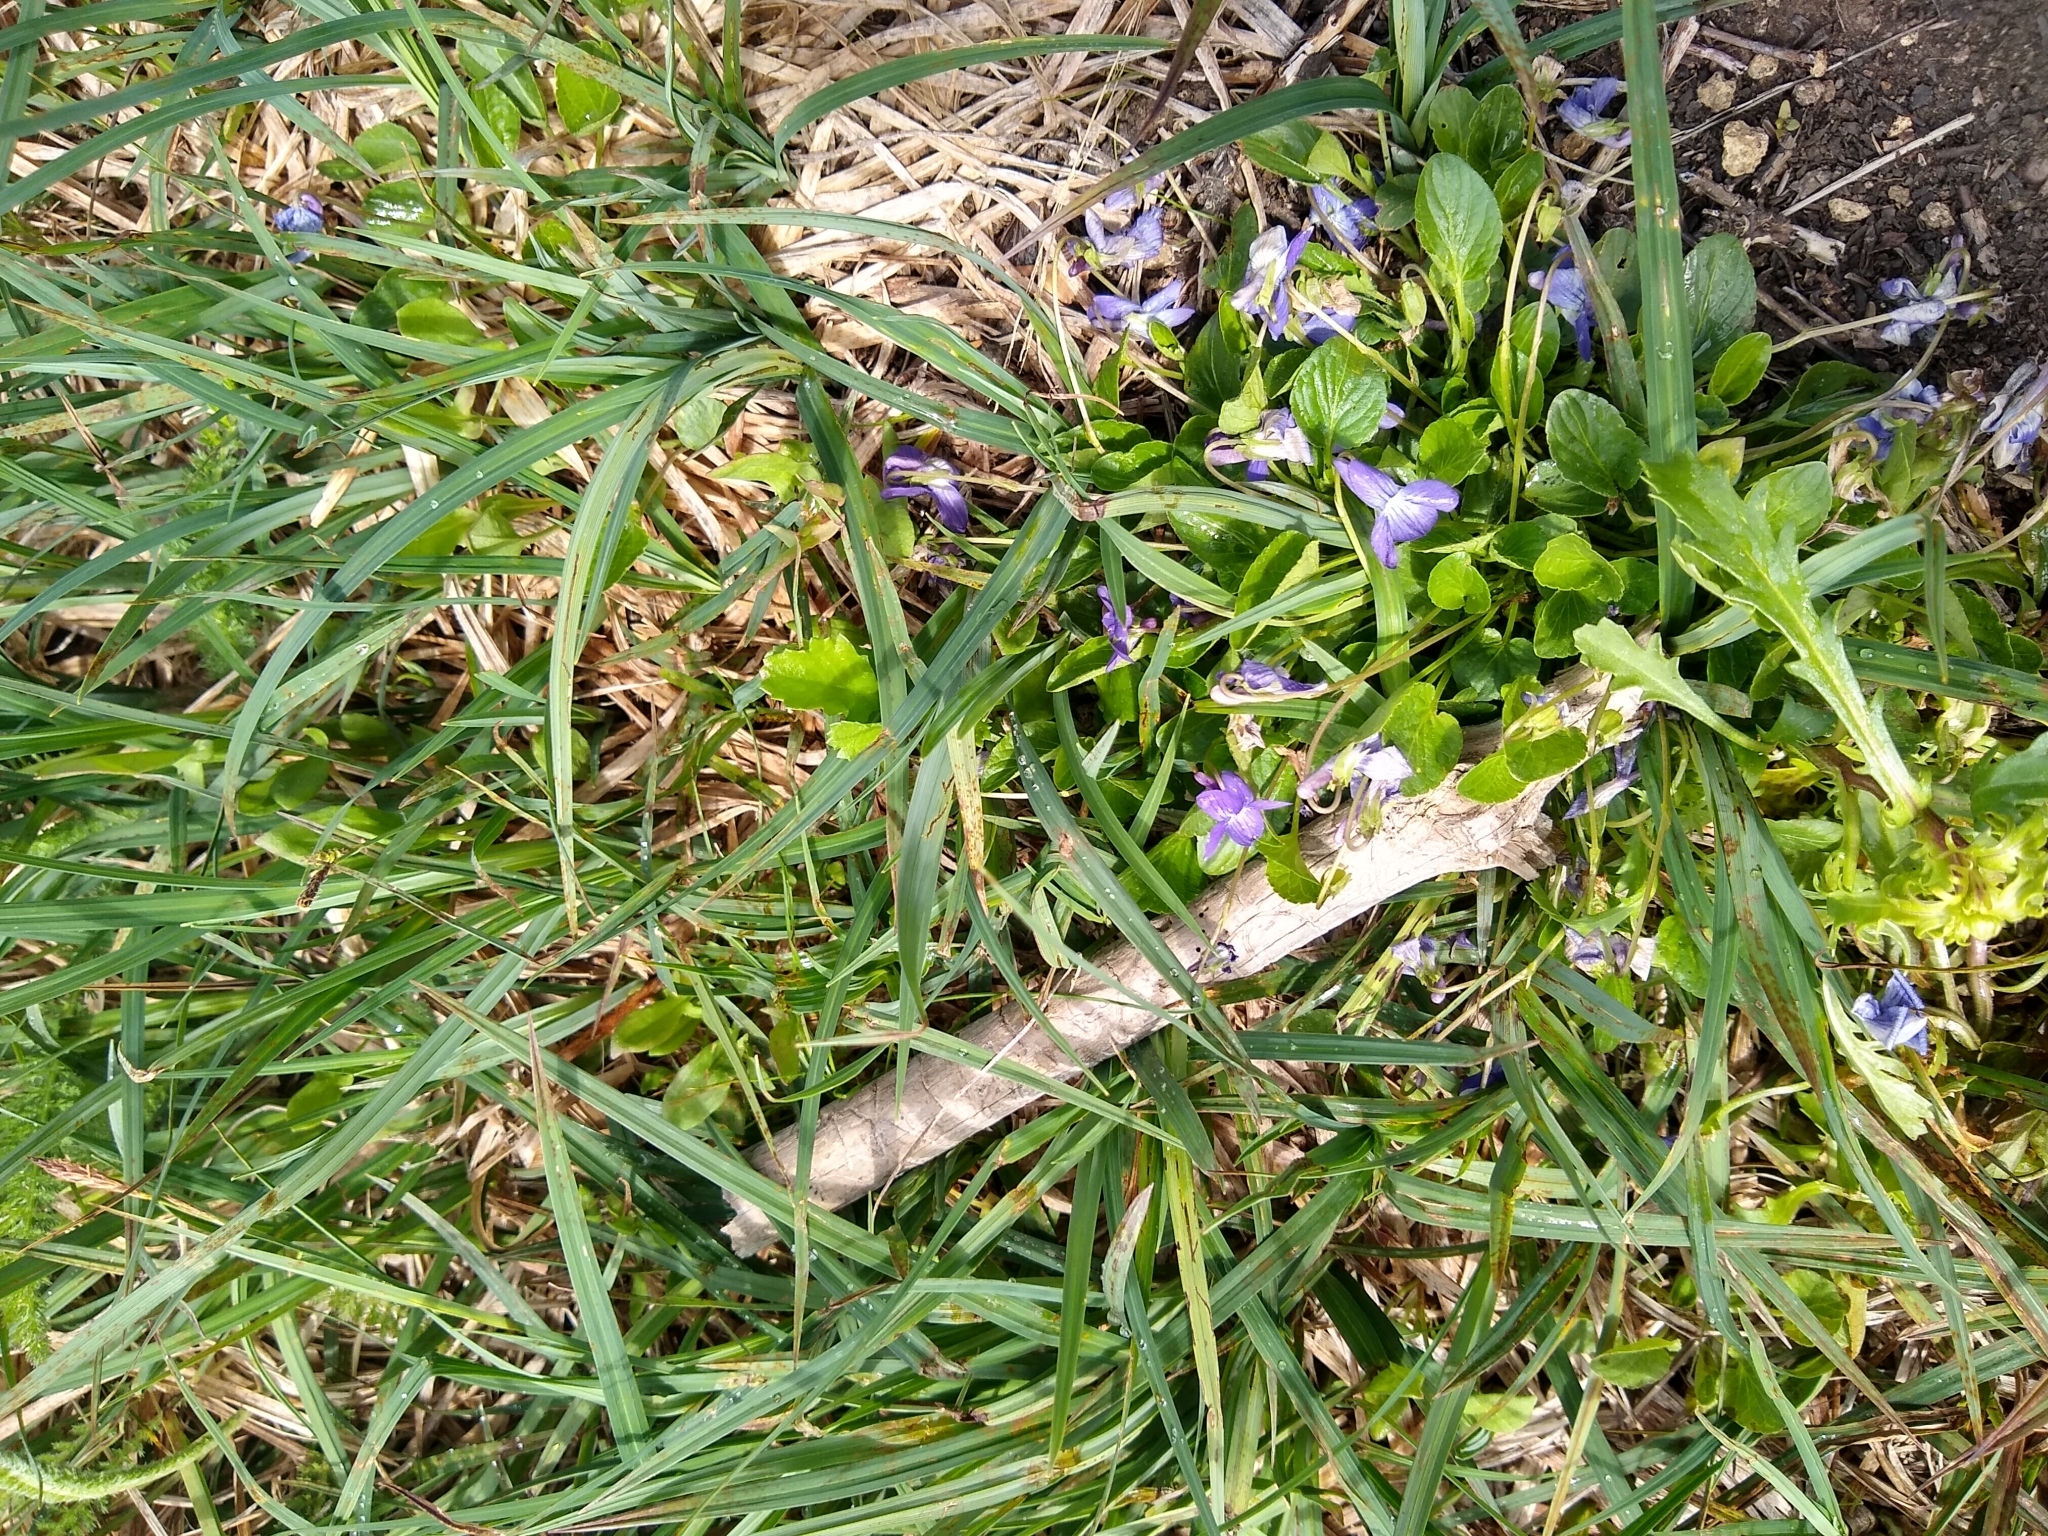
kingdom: Plantae
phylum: Tracheophyta
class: Magnoliopsida
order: Malpighiales
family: Violaceae
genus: Viola
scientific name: Viola adunca
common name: Sand violet
